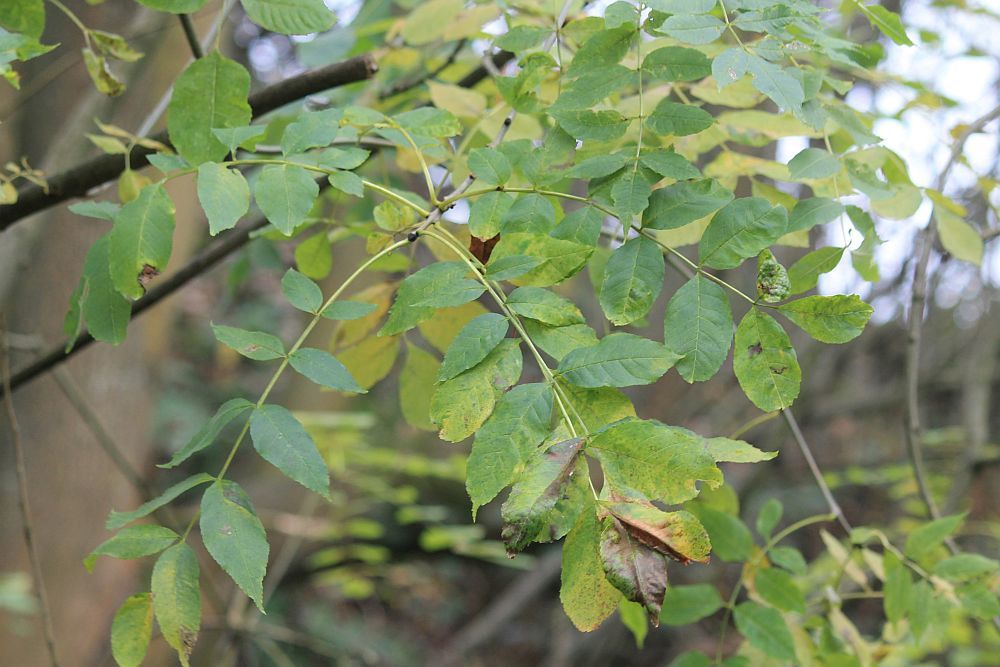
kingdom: Plantae
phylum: Tracheophyta
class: Magnoliopsida
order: Lamiales
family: Oleaceae
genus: Fraxinus
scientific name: Fraxinus excelsior
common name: European ash
